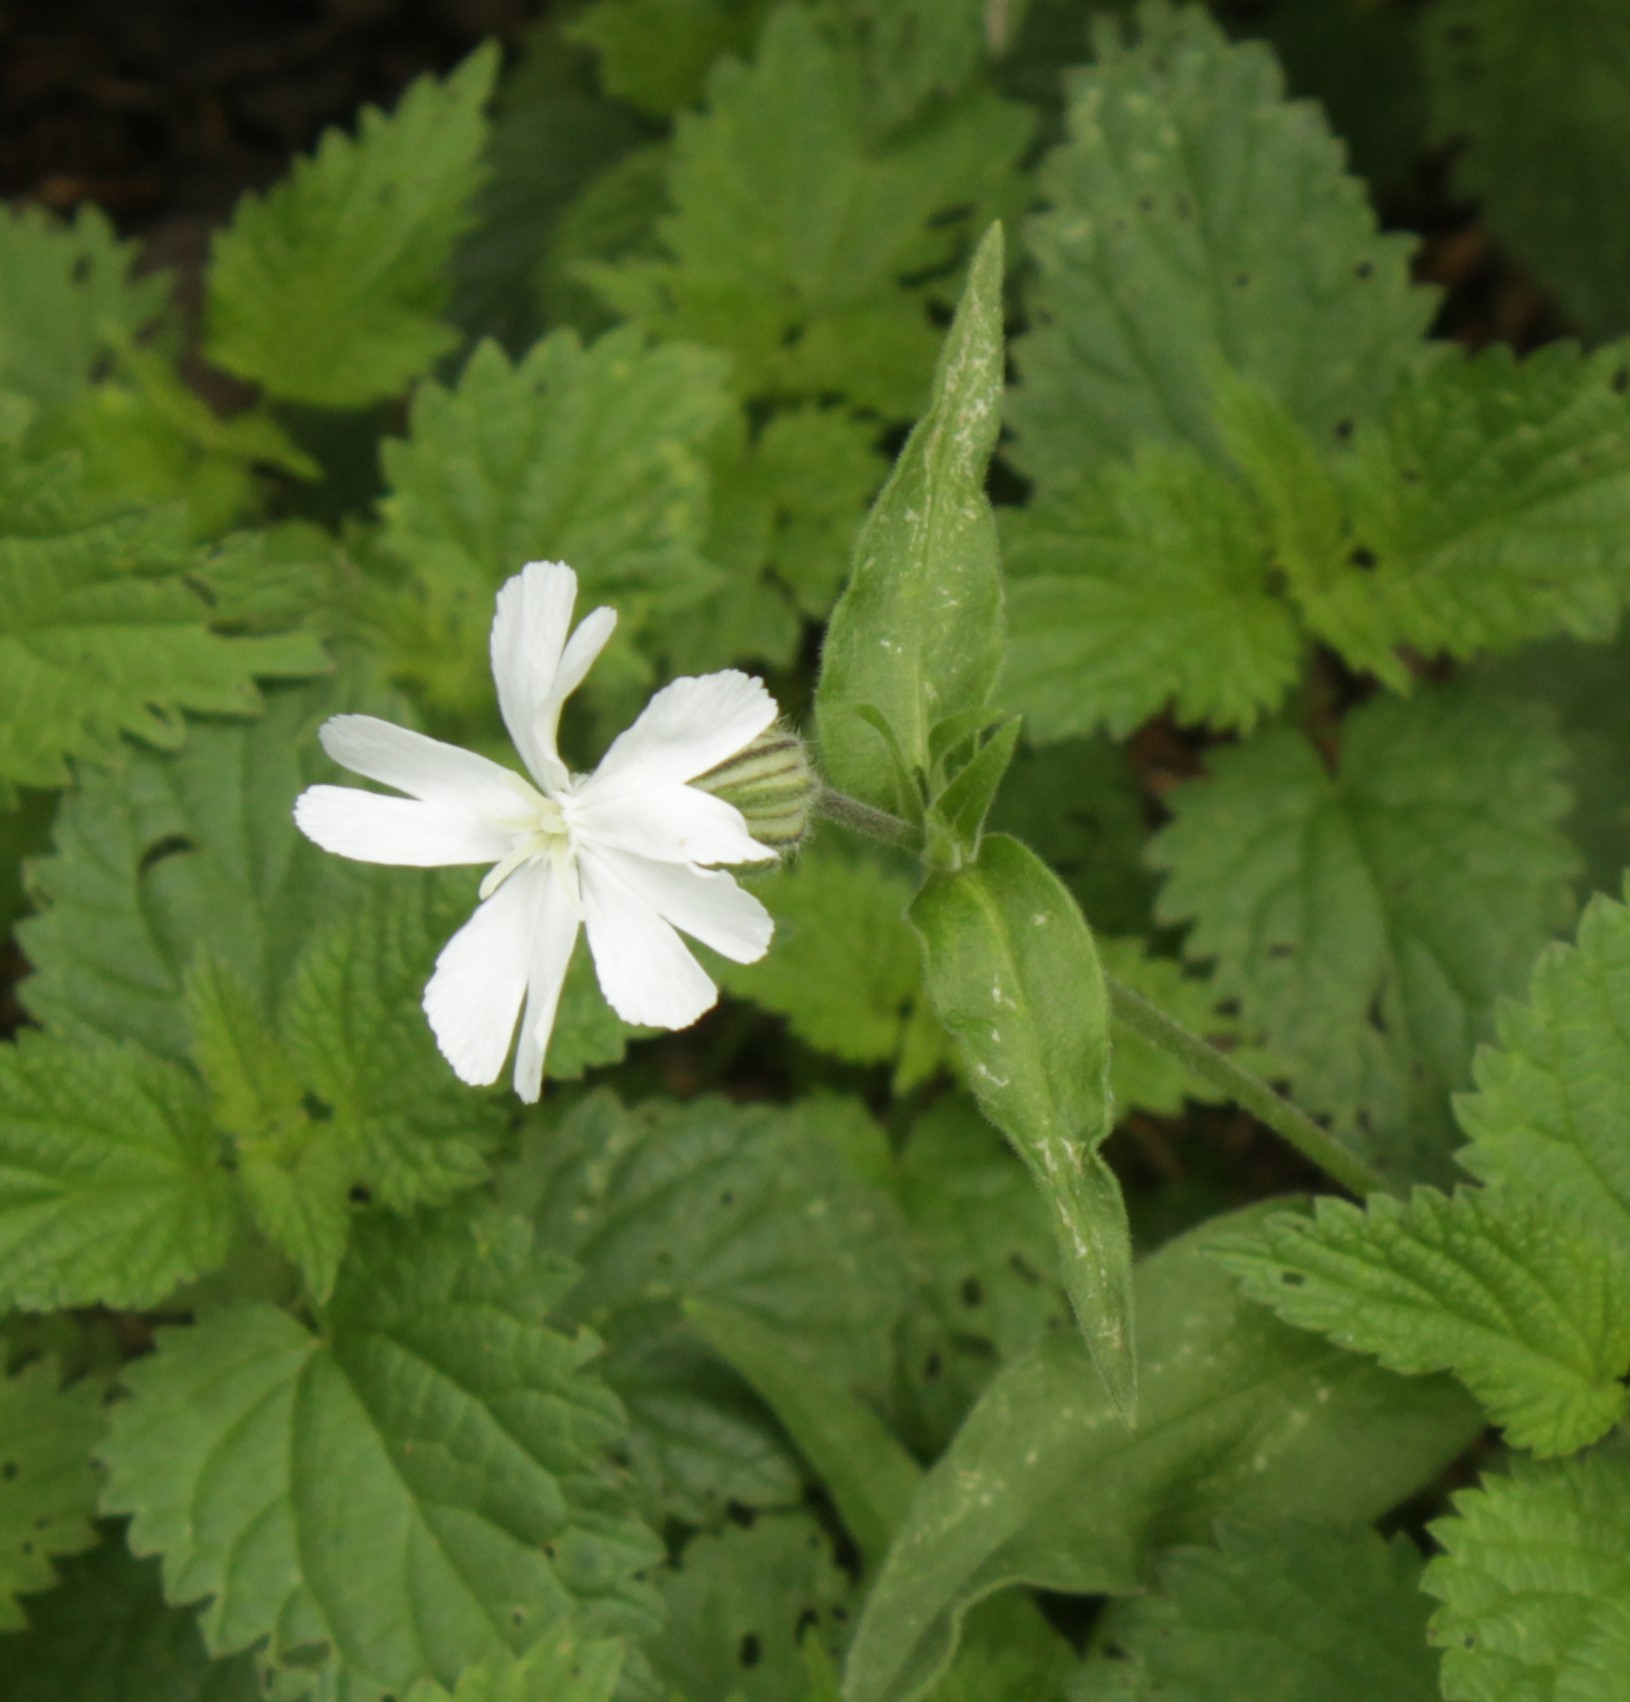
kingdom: Plantae
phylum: Tracheophyta
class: Magnoliopsida
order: Caryophyllales
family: Caryophyllaceae
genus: Silene
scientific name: Silene latifolia
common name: White campion
